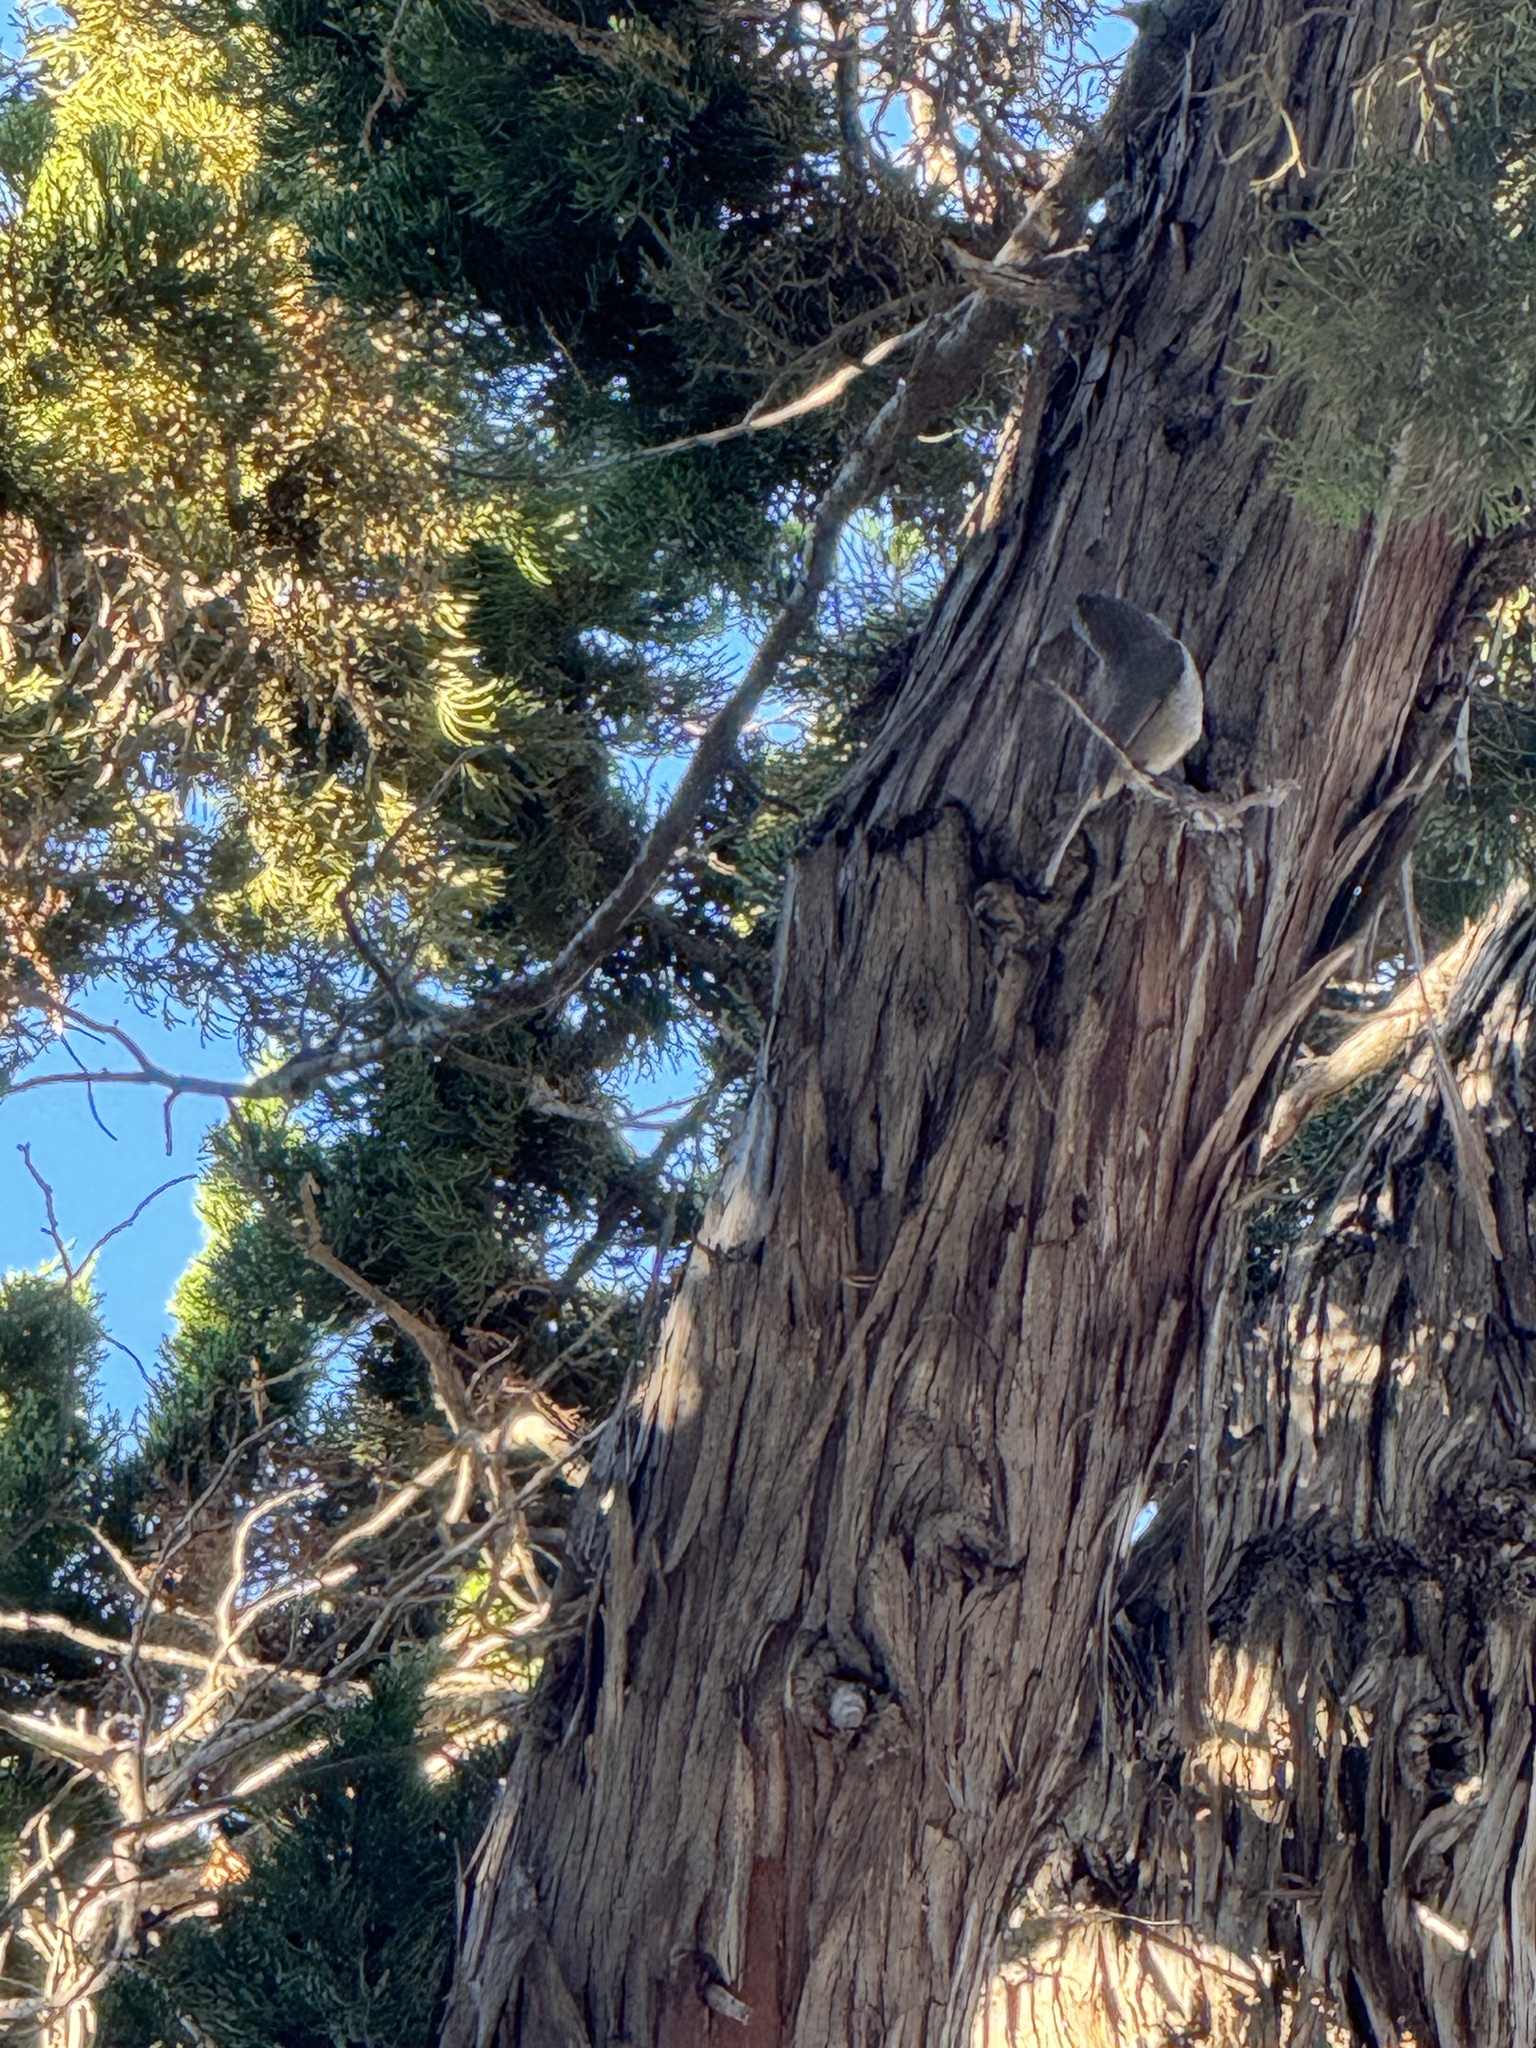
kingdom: Animalia
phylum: Chordata
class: Aves
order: Passeriformes
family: Paridae
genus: Baeolophus
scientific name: Baeolophus inornatus
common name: Oak titmouse
